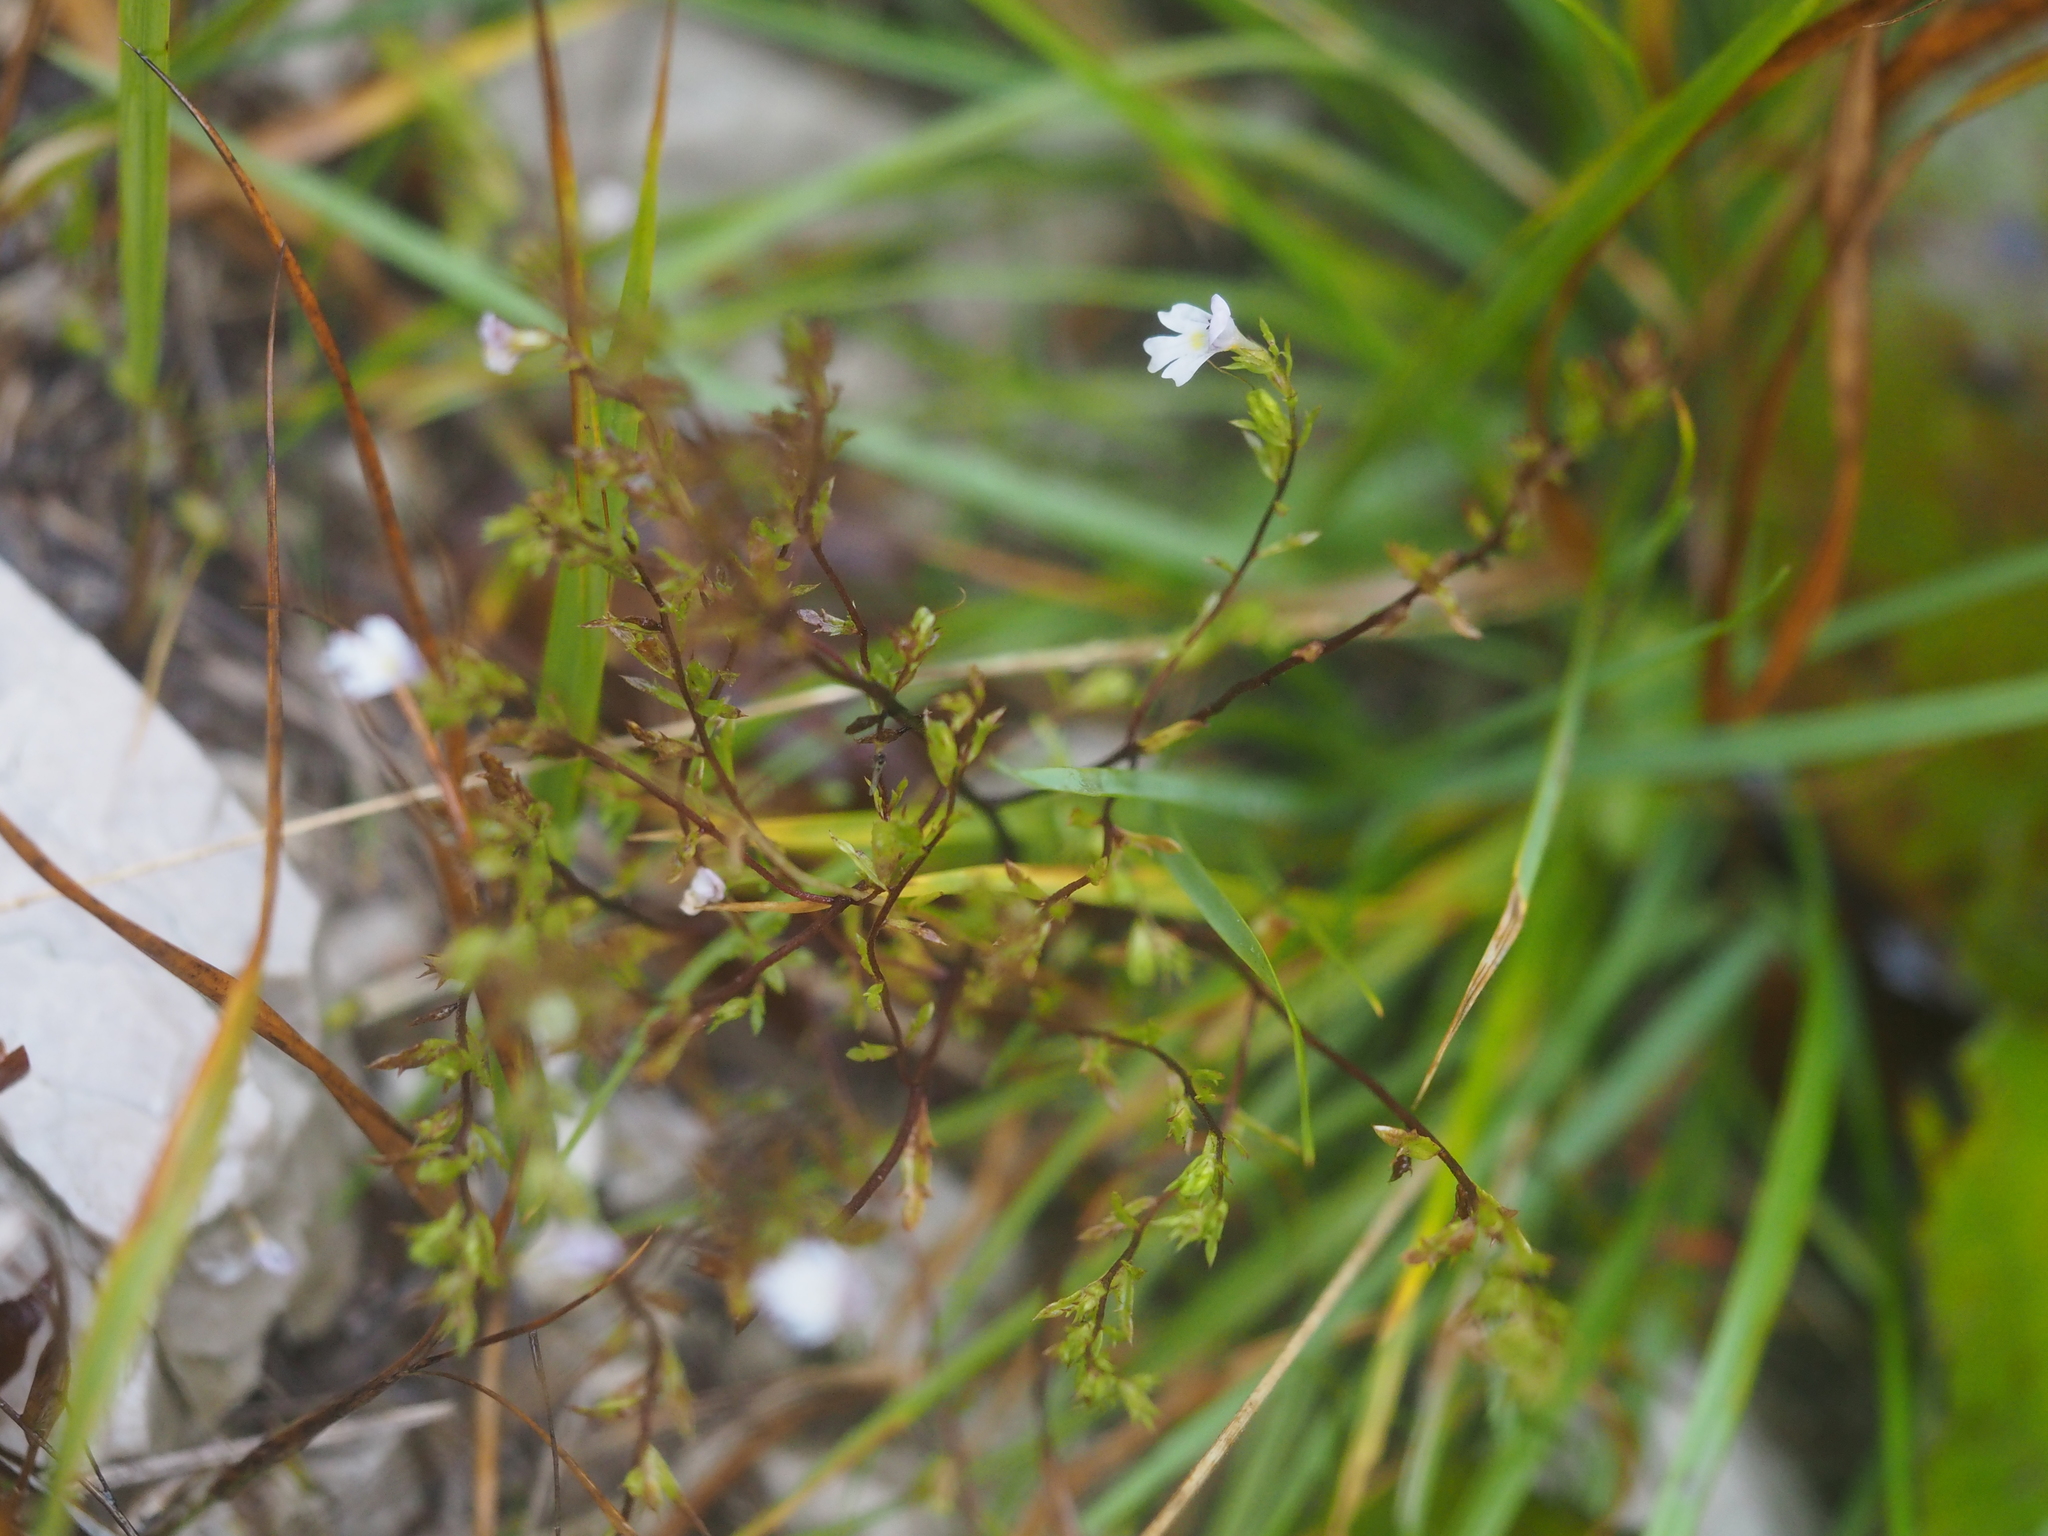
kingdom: Plantae
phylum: Tracheophyta
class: Magnoliopsida
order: Lamiales
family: Orobanchaceae
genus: Euphrasia
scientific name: Euphrasia salisburgensis
